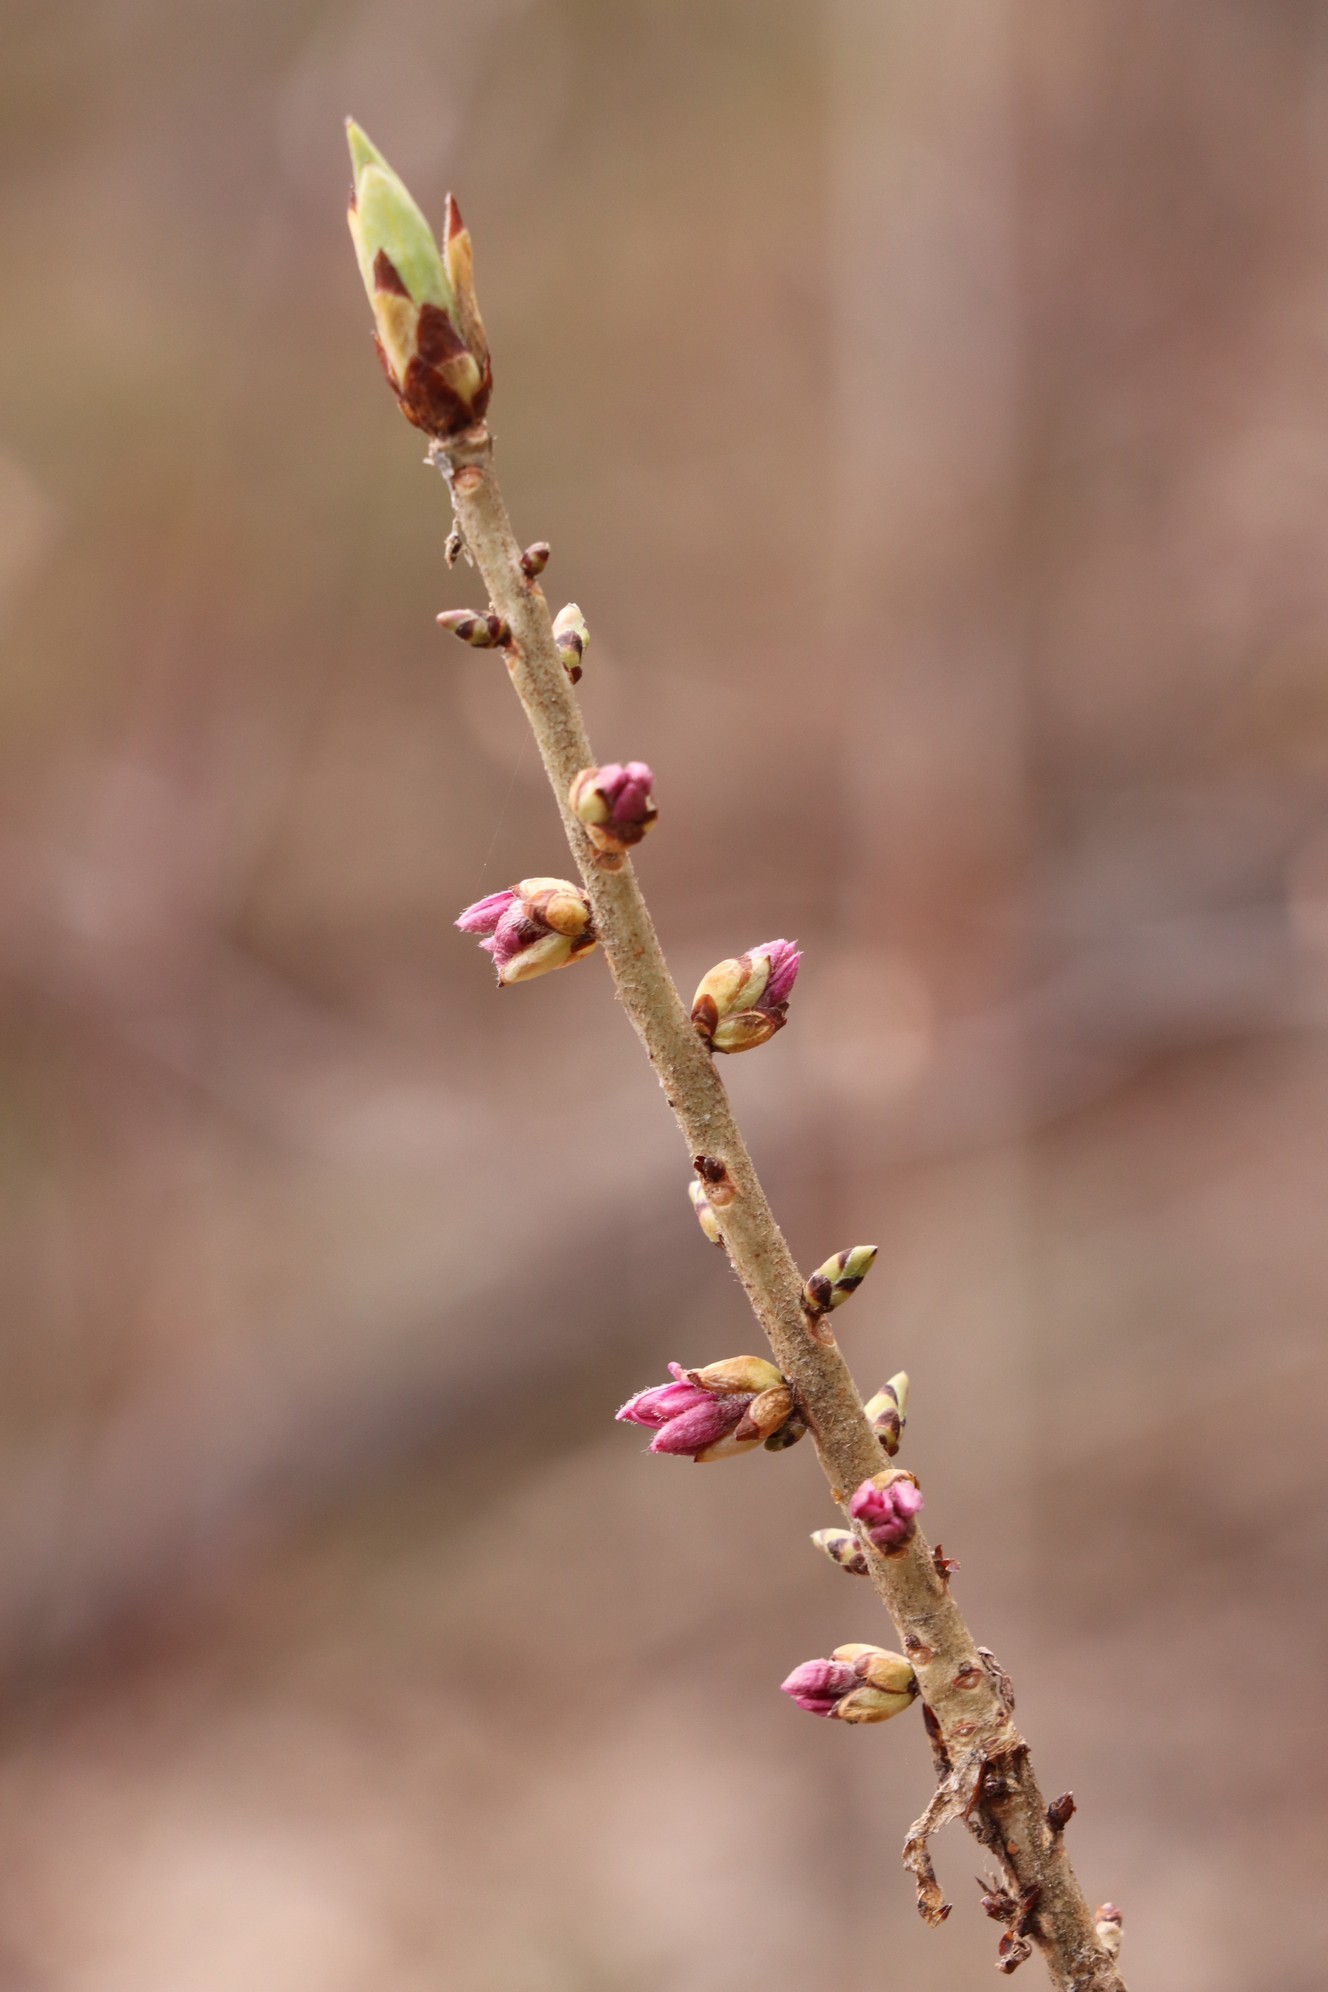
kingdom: Plantae
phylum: Tracheophyta
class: Magnoliopsida
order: Malvales
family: Thymelaeaceae
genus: Daphne
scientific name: Daphne mezereum
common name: Mezereon
